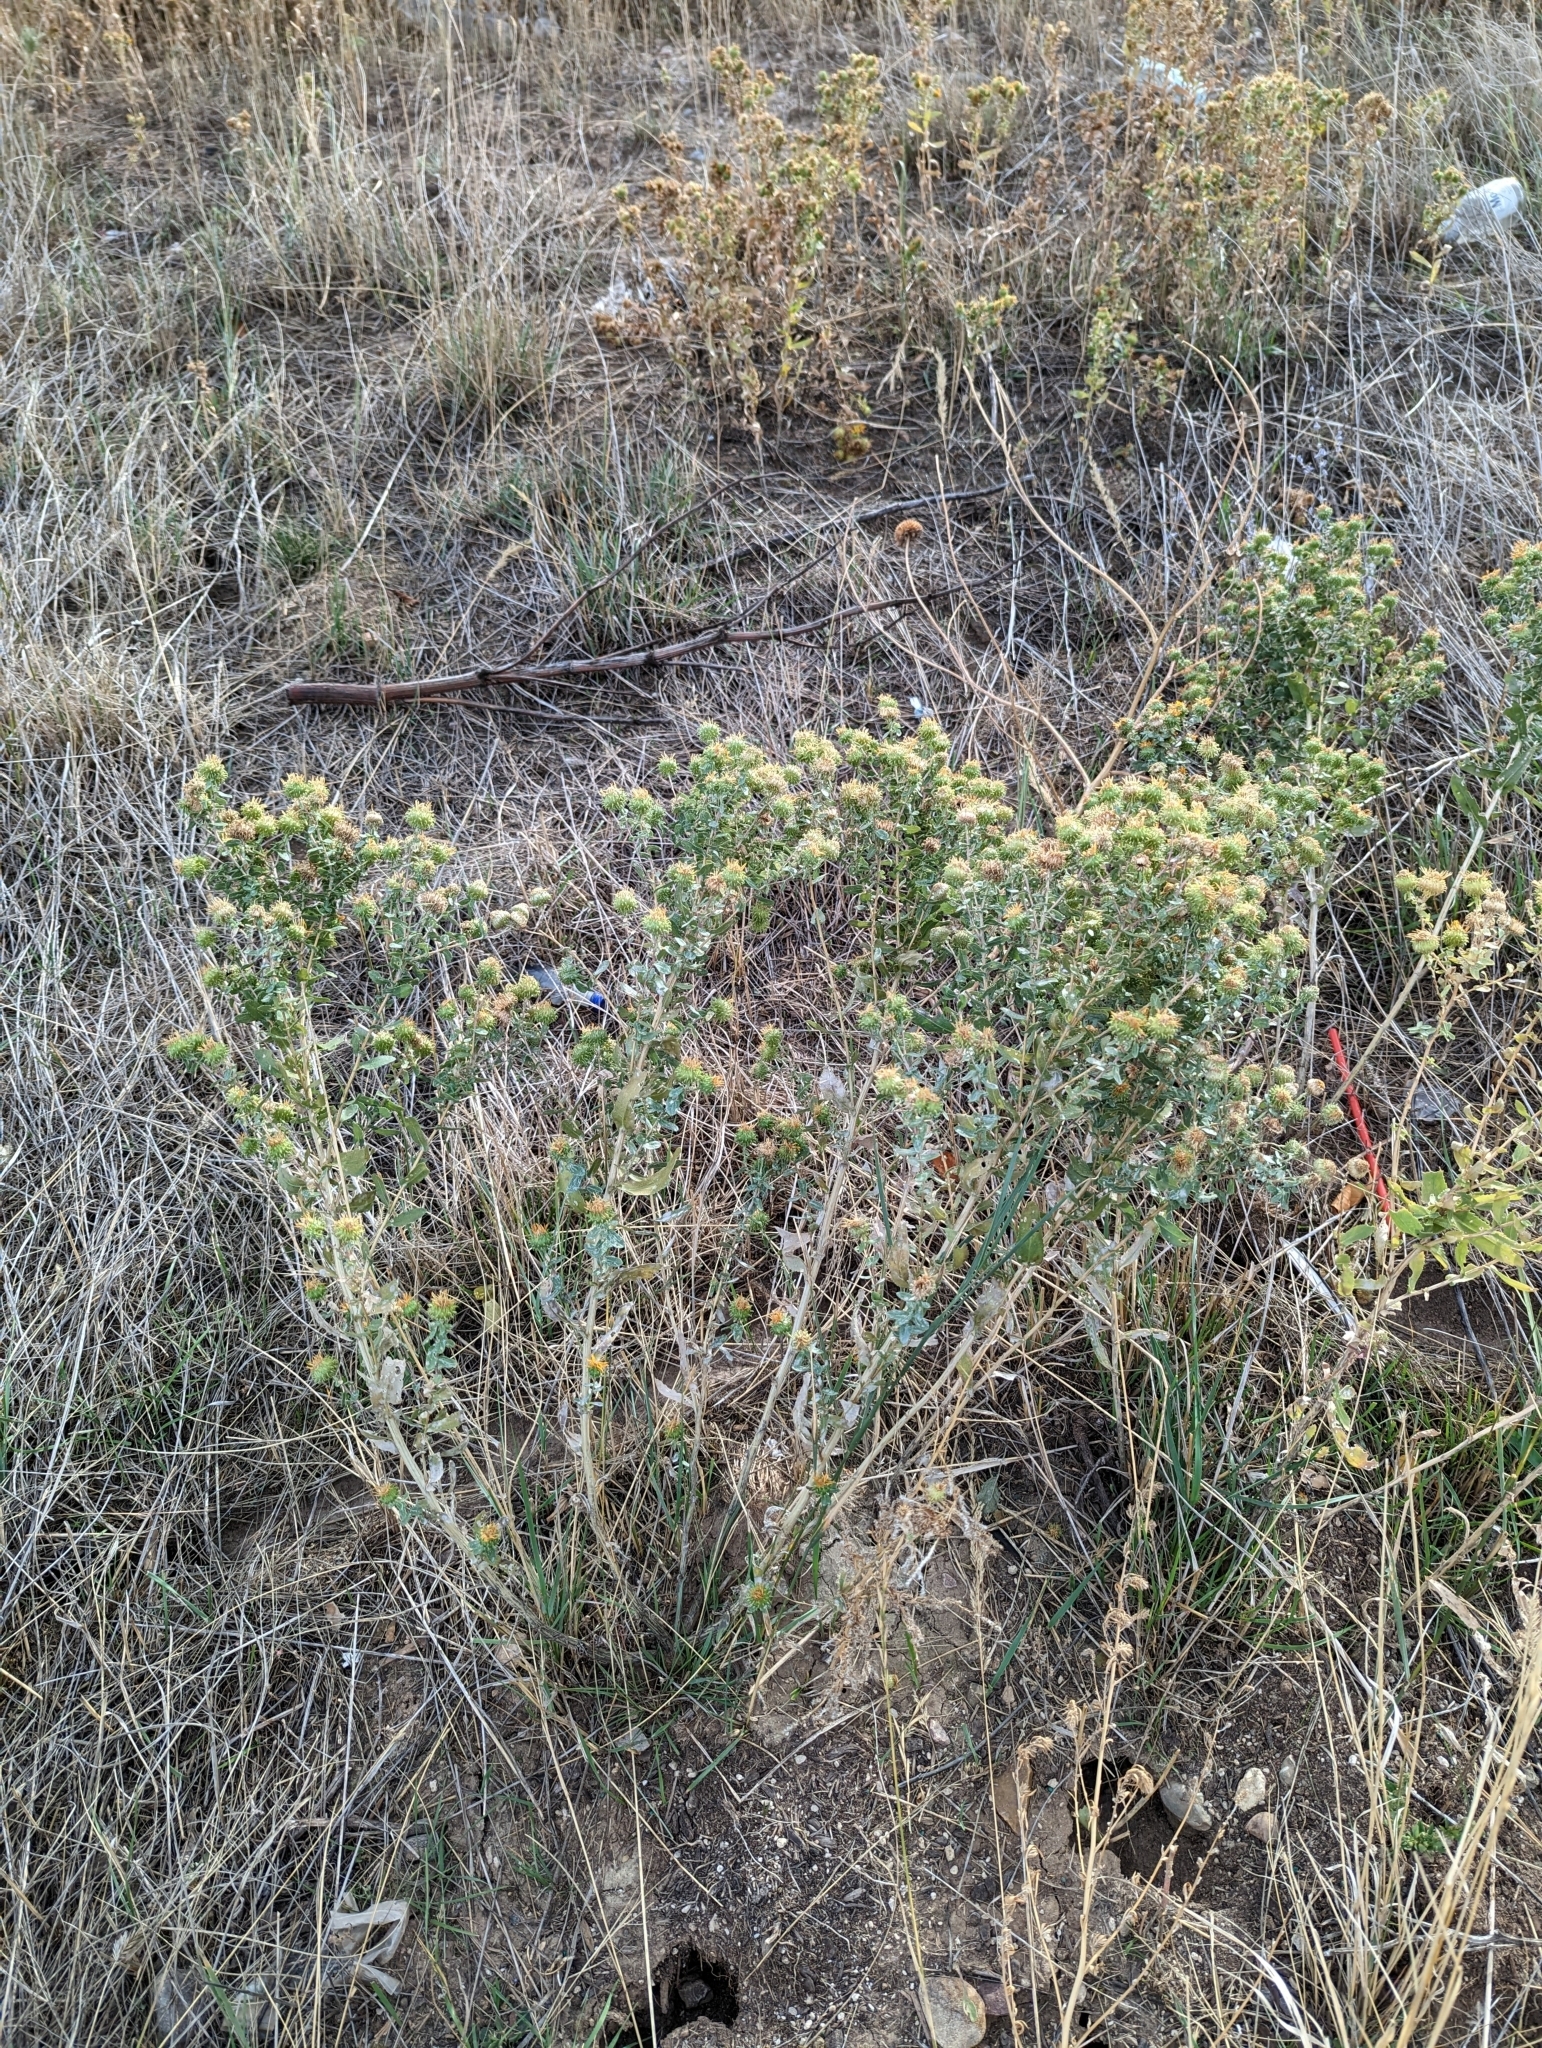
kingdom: Plantae
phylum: Tracheophyta
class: Magnoliopsida
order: Asterales
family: Asteraceae
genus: Grindelia
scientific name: Grindelia squarrosa
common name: Curly-cup gumweed
